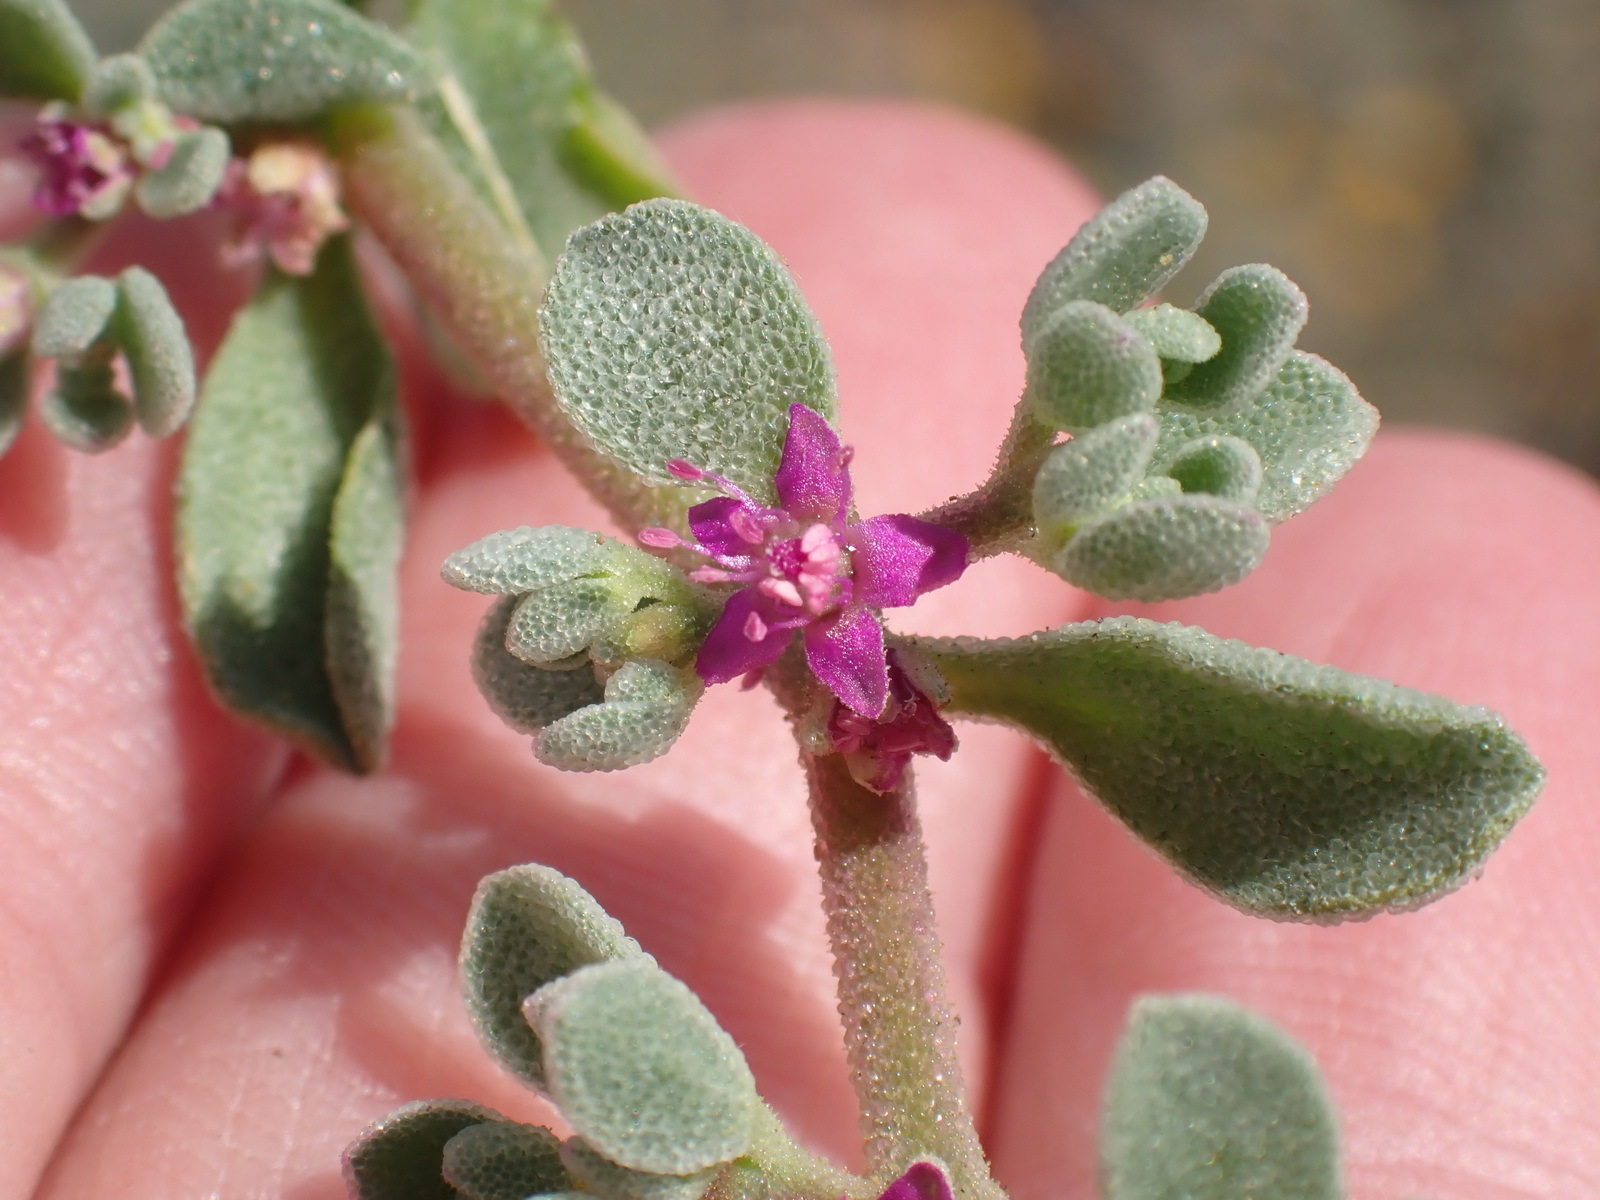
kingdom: Plantae
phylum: Tracheophyta
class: Magnoliopsida
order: Caryophyllales
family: Aizoaceae
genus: Aizoon
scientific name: Aizoon portulacaceum
